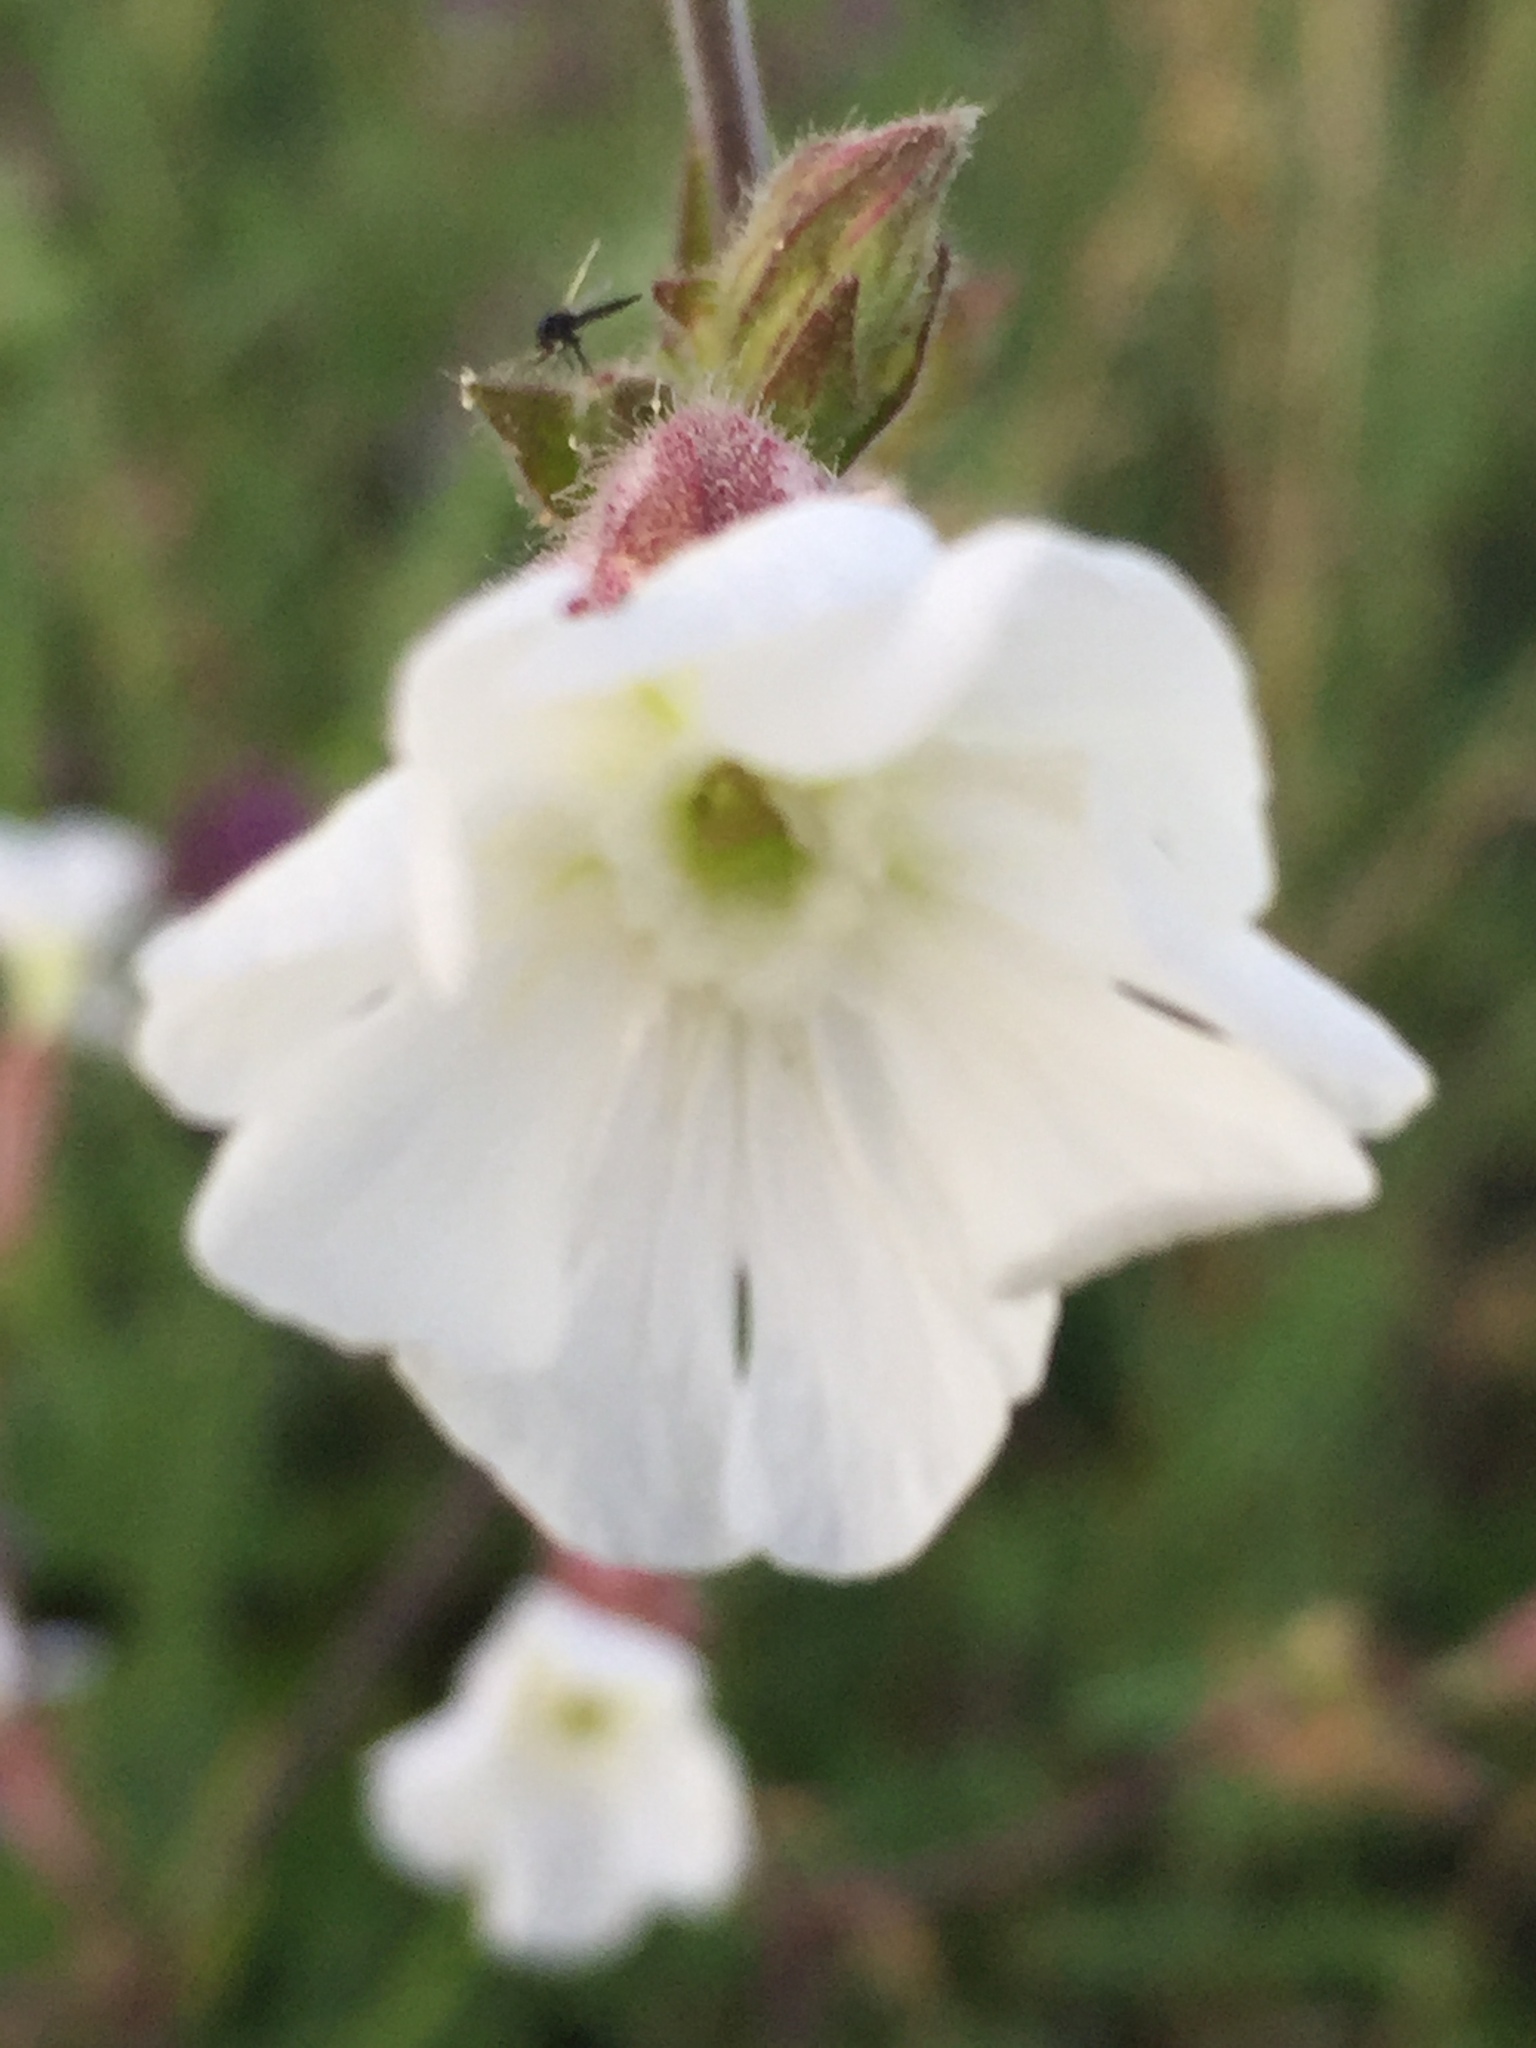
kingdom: Plantae
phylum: Tracheophyta
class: Magnoliopsida
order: Caryophyllales
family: Caryophyllaceae
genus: Silene
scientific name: Silene latifolia
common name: White campion
